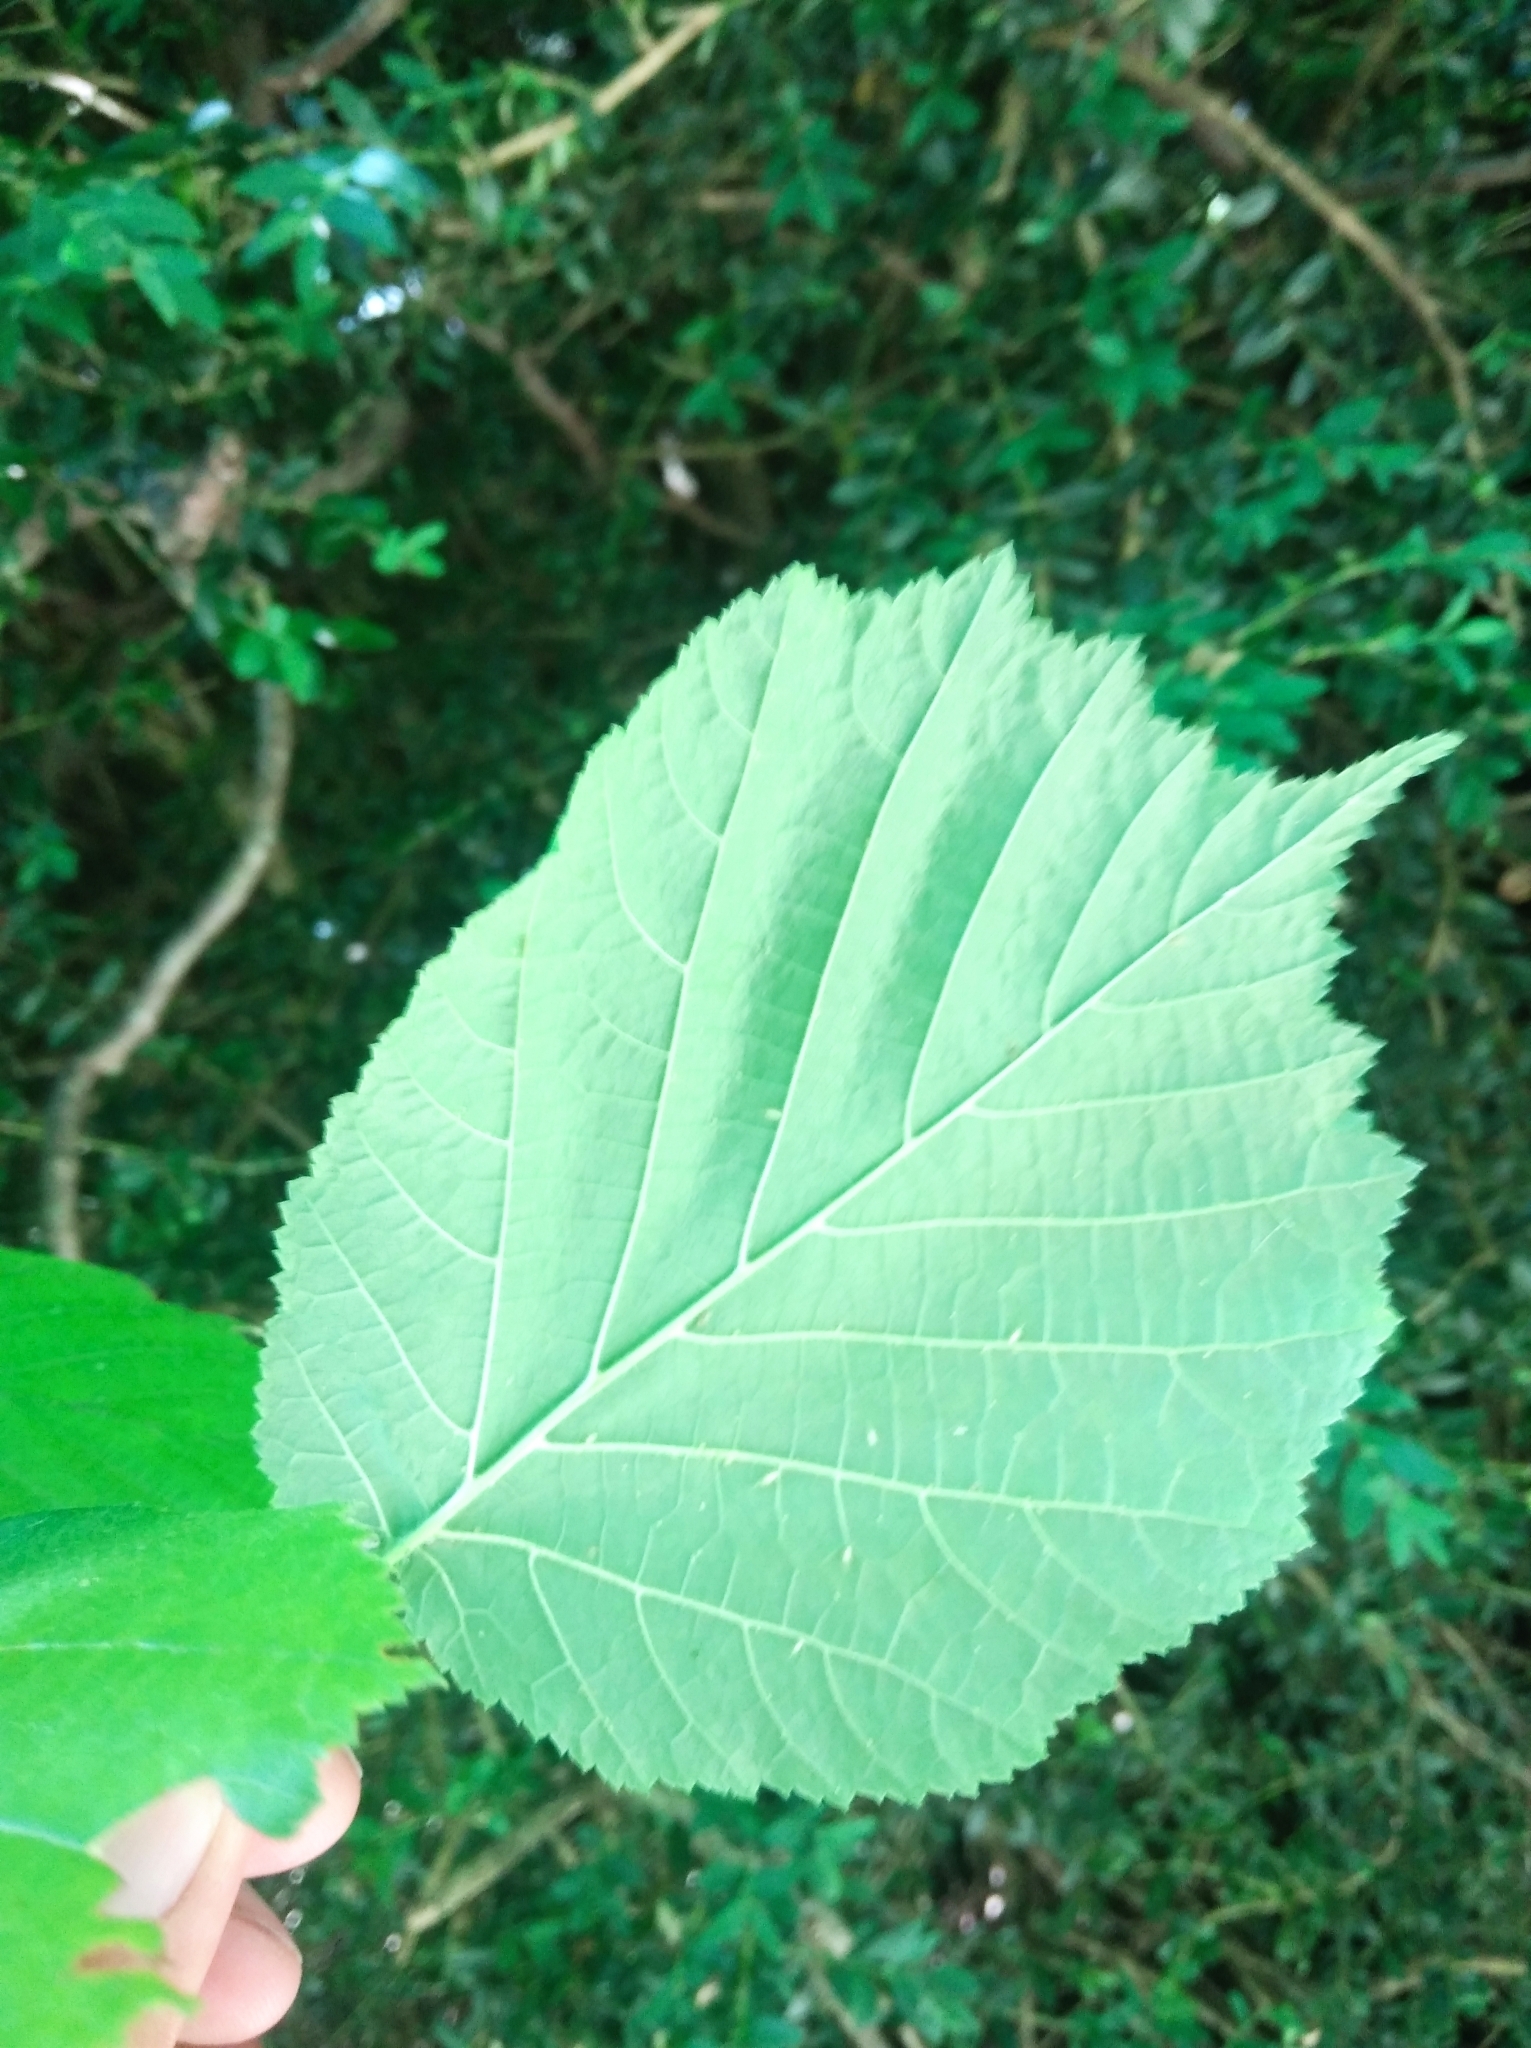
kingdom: Plantae
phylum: Tracheophyta
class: Magnoliopsida
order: Fagales
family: Betulaceae
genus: Corylus
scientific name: Corylus avellana
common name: European hazel
